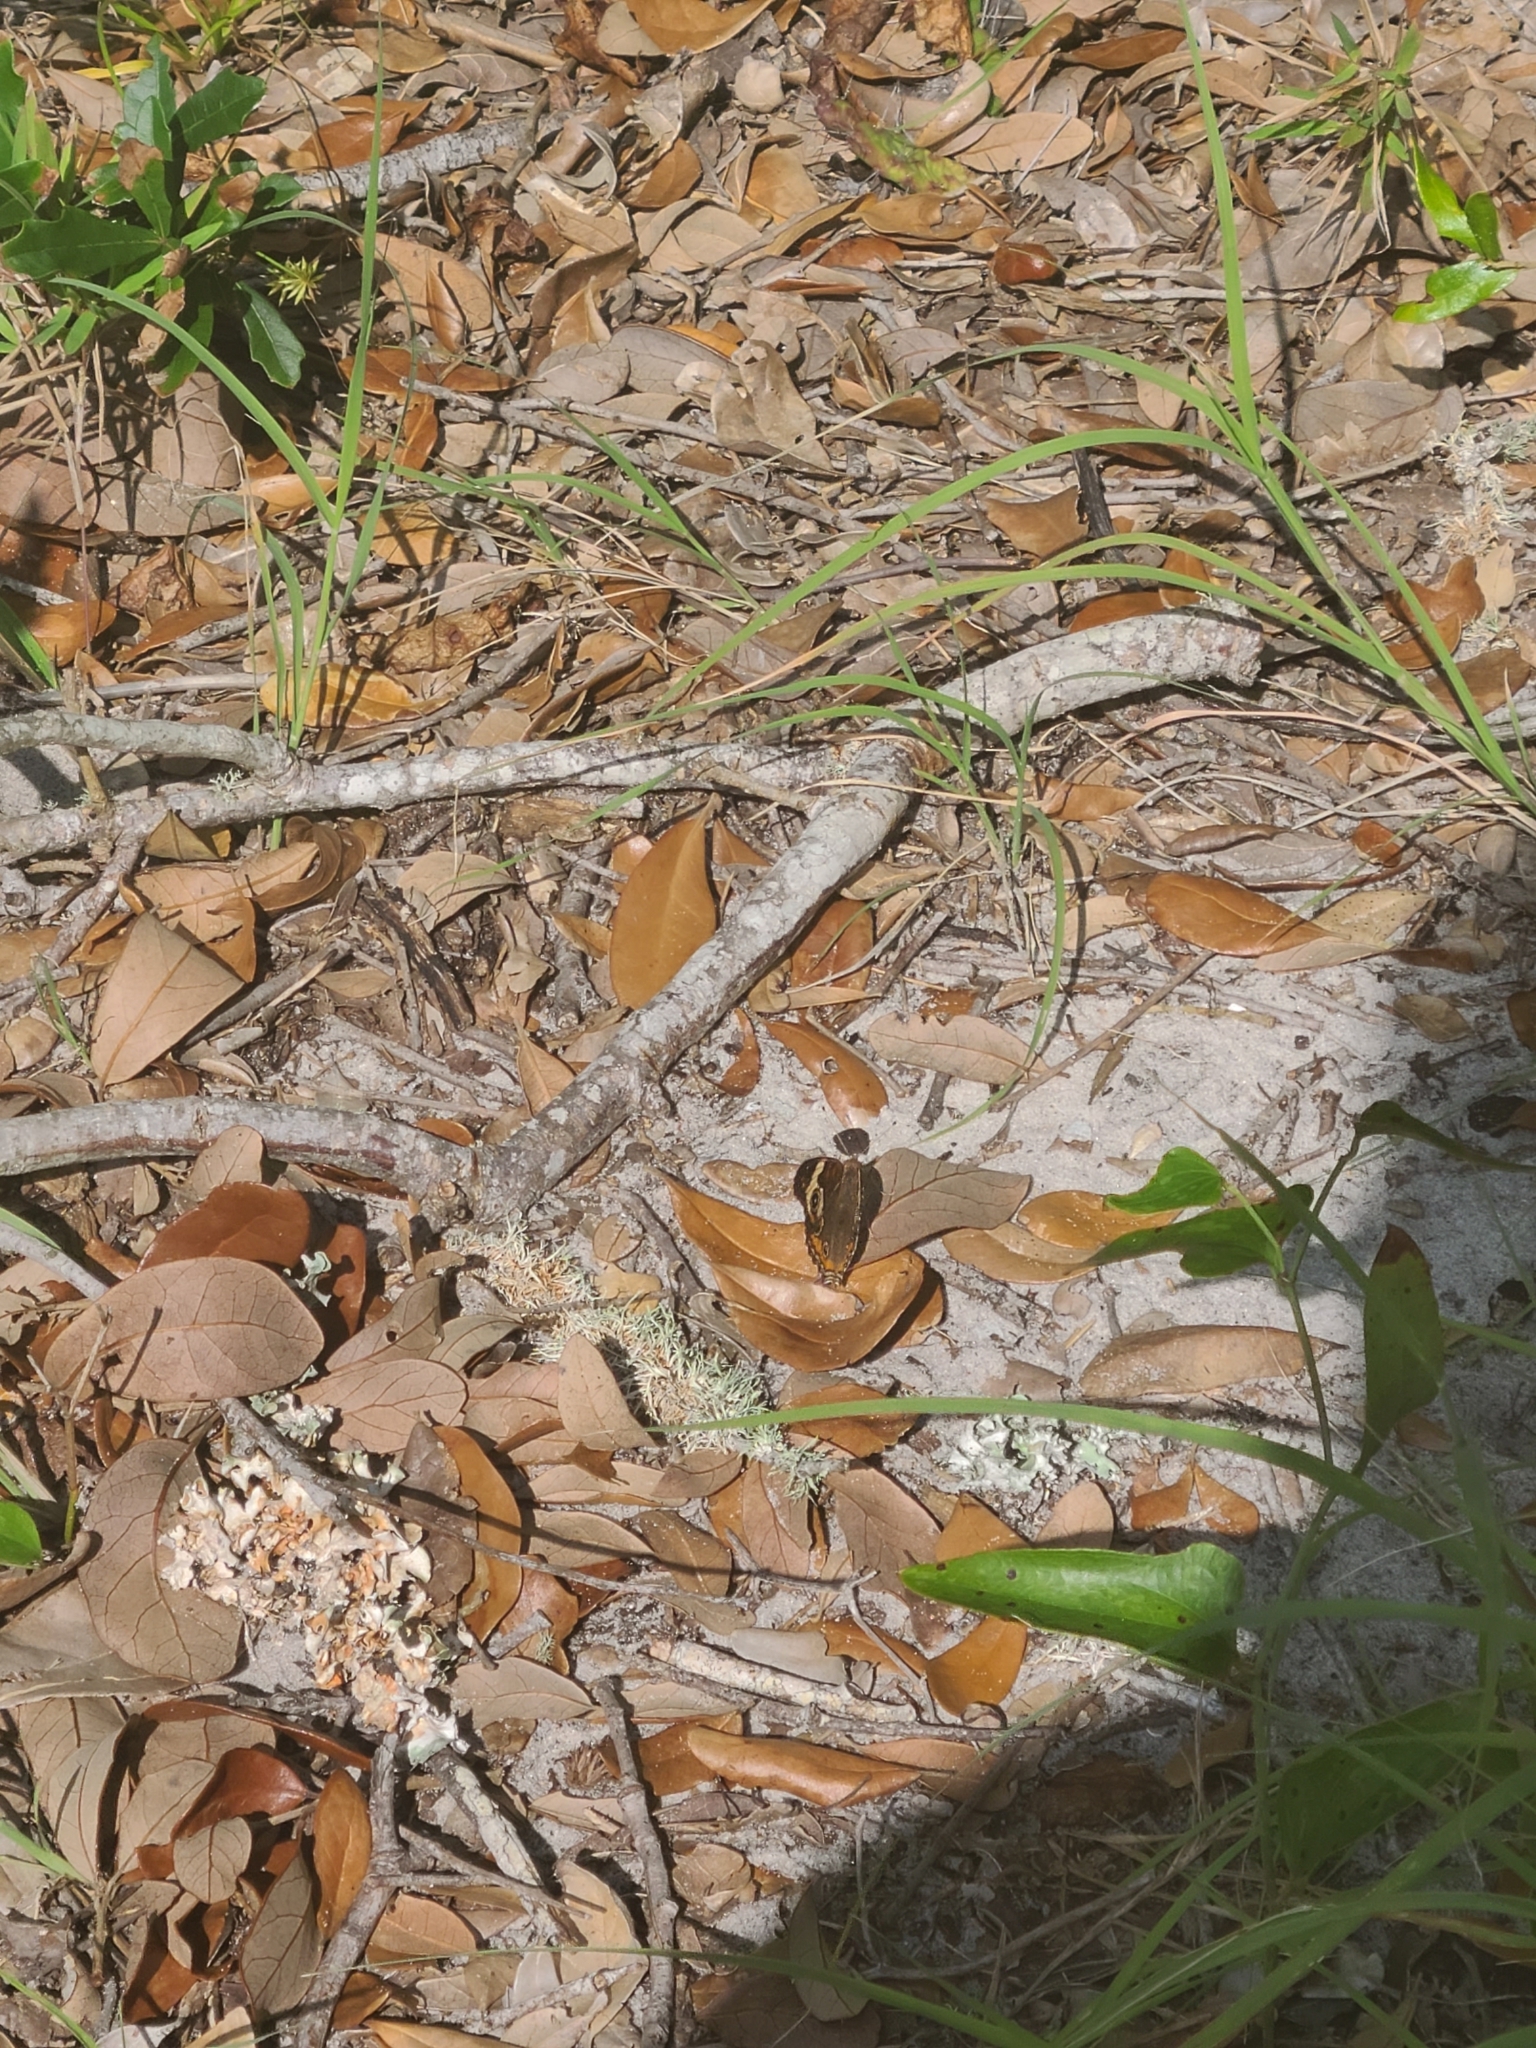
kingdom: Animalia
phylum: Arthropoda
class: Insecta
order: Lepidoptera
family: Nymphalidae
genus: Junonia
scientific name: Junonia coenia
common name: Common buckeye
